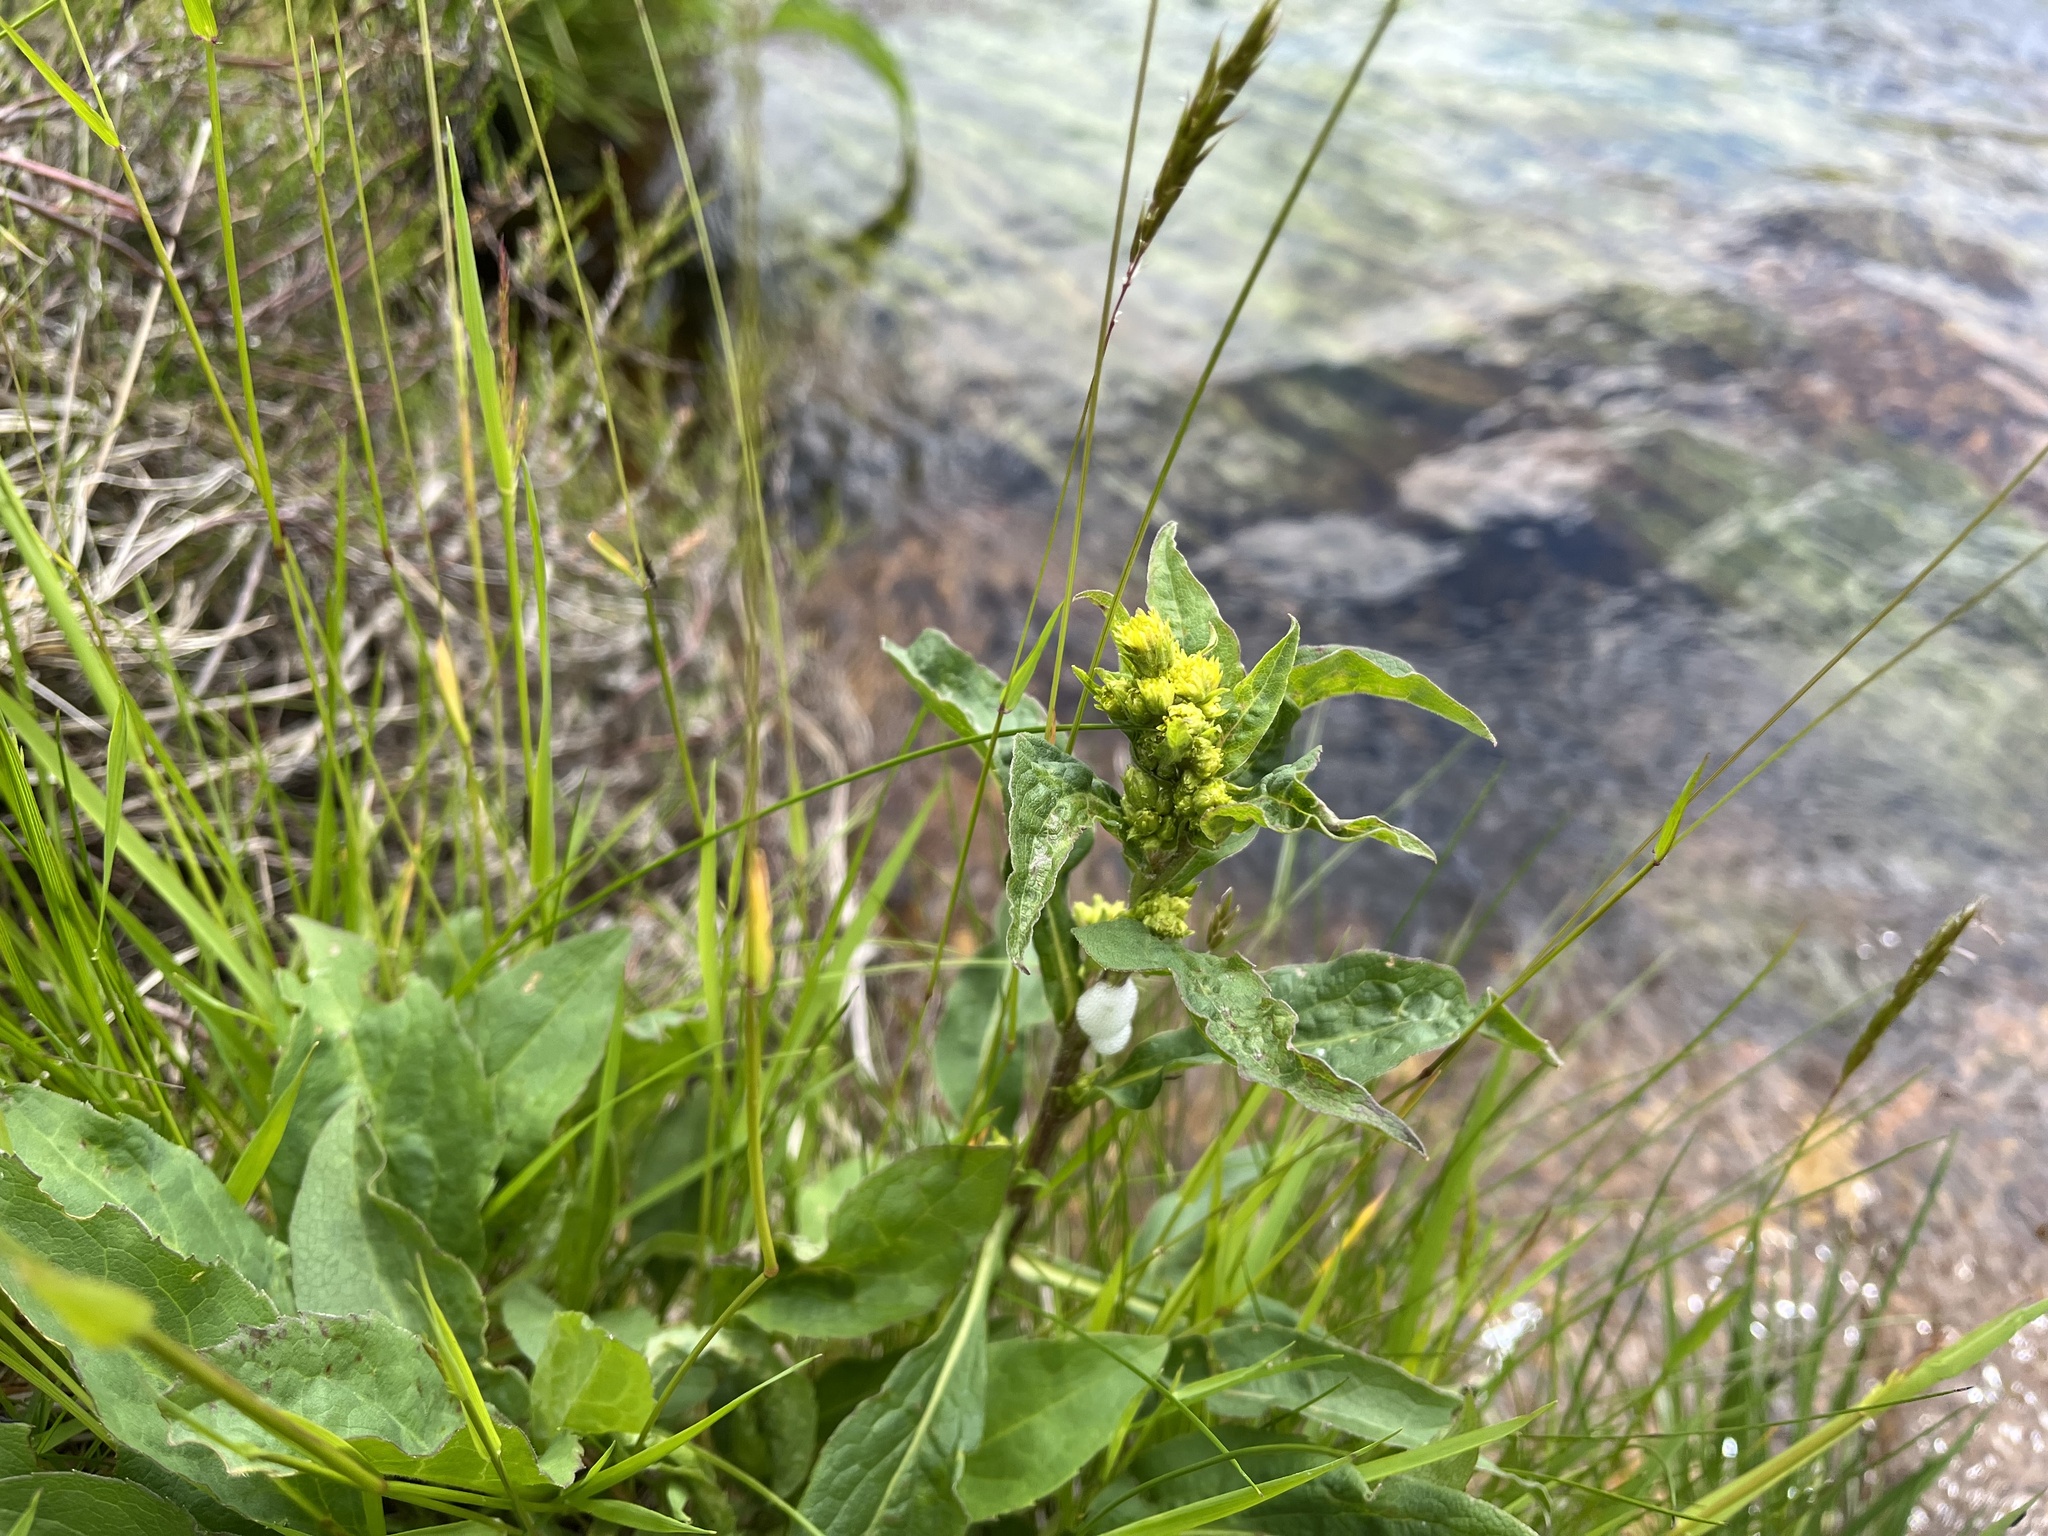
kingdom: Plantae
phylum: Tracheophyta
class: Magnoliopsida
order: Asterales
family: Asteraceae
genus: Solidago
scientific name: Solidago virgaurea
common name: Goldenrod
